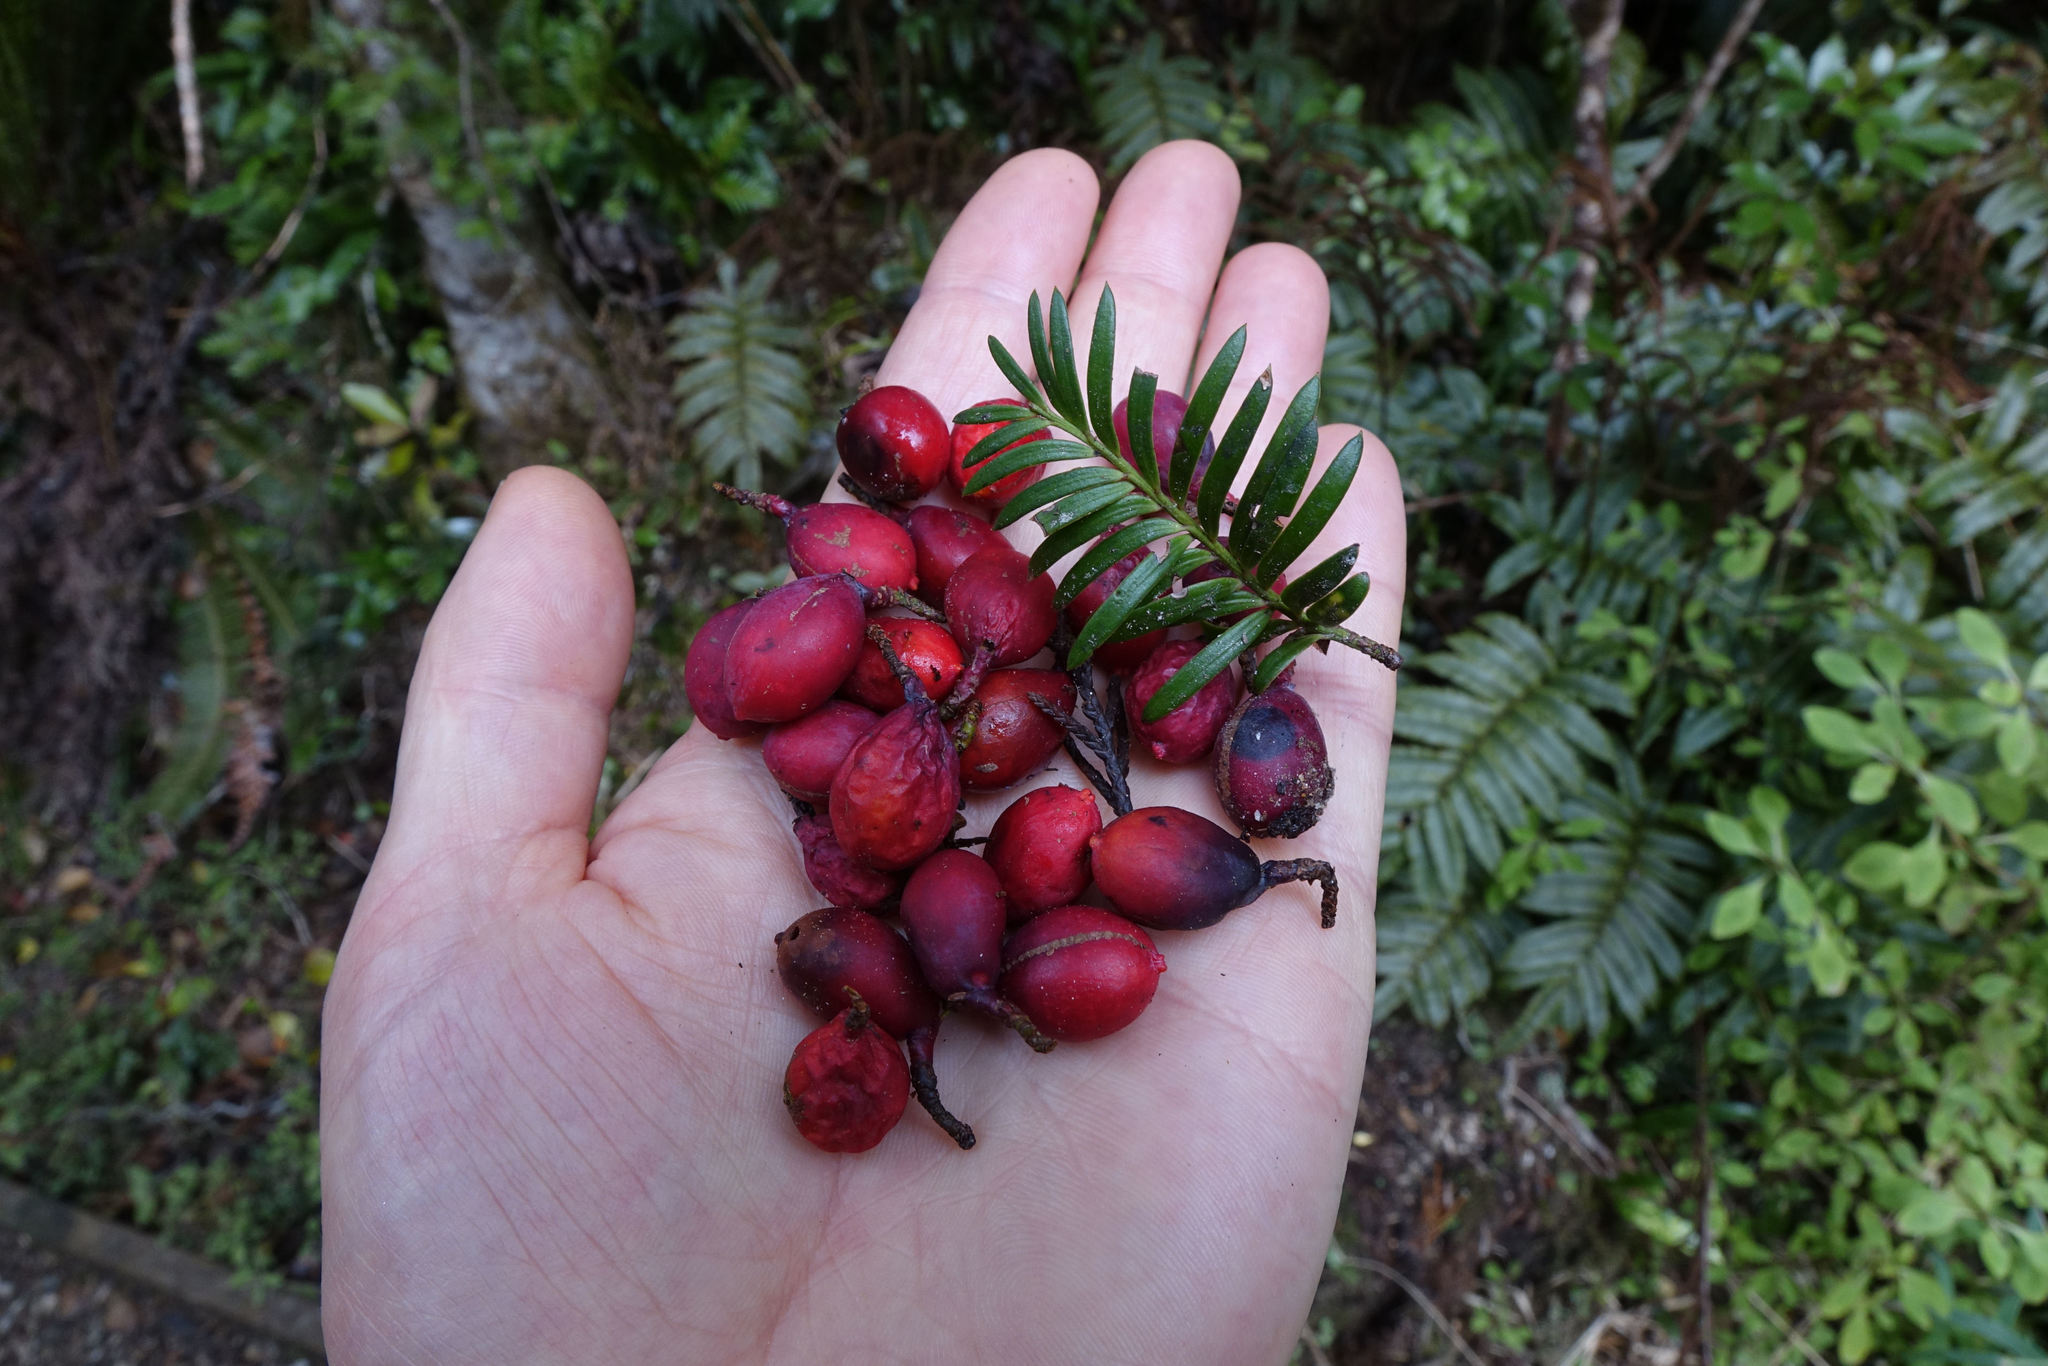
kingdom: Plantae
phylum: Tracheophyta
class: Pinopsida
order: Pinales
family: Podocarpaceae
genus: Prumnopitys
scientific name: Prumnopitys ferruginea
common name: Brown pine
